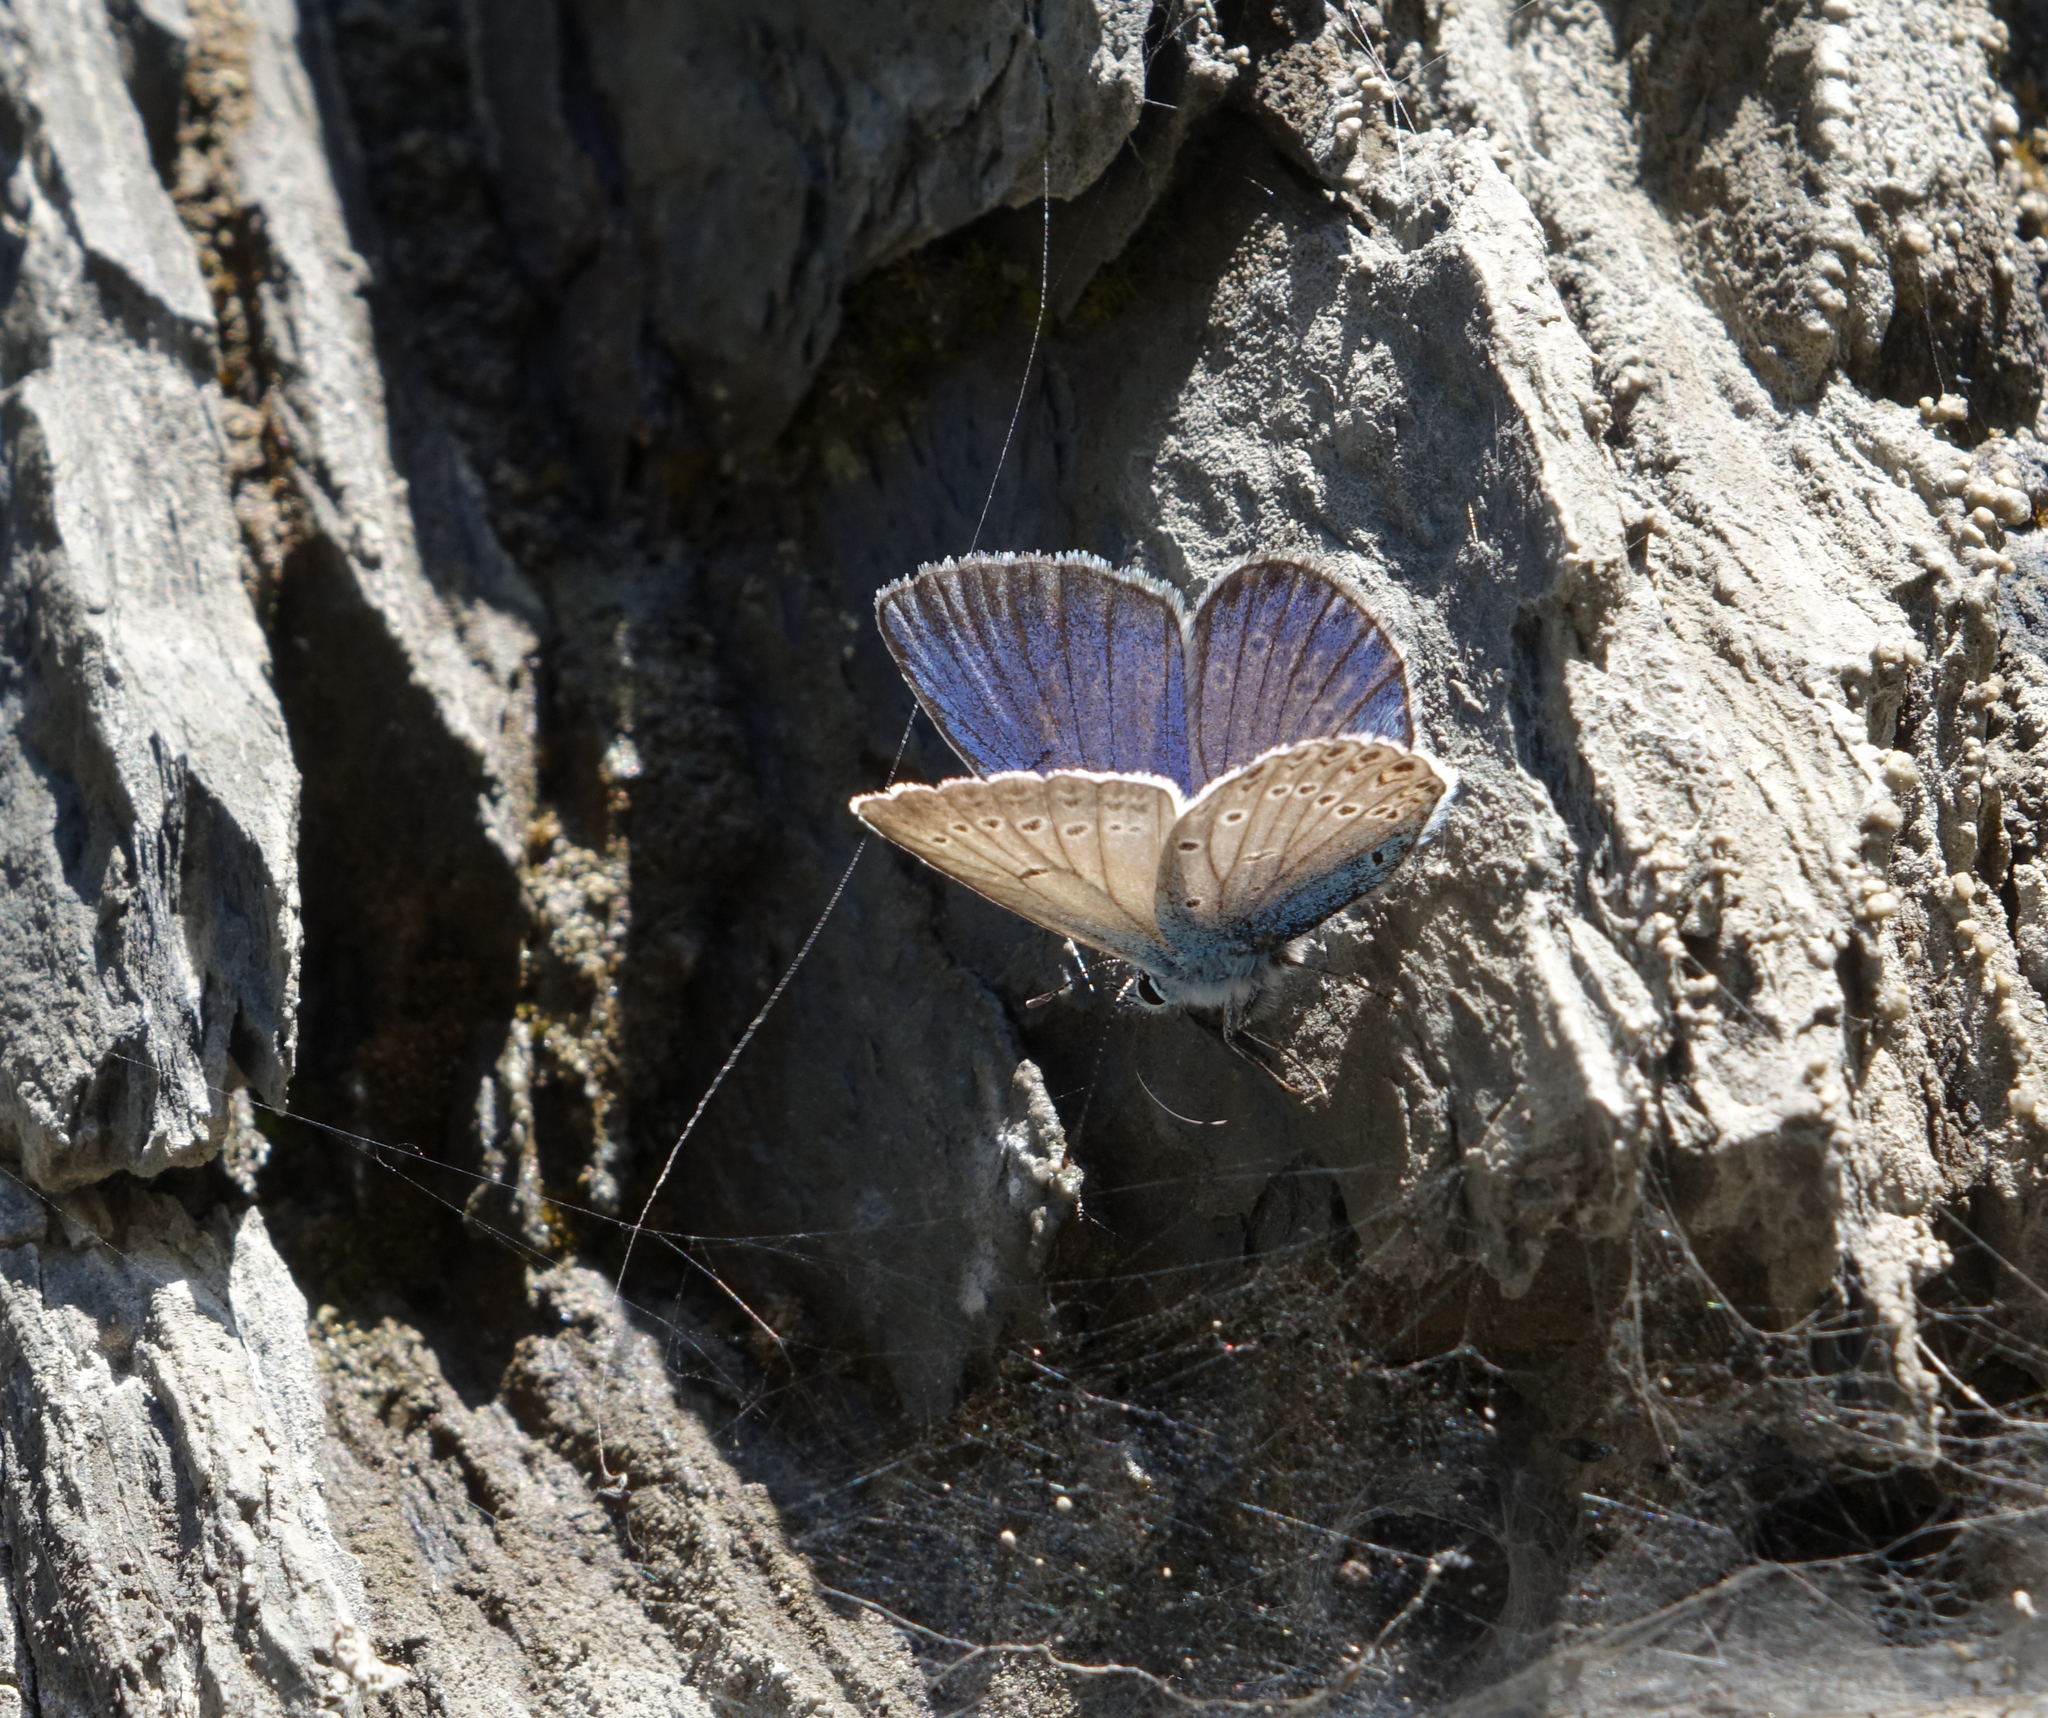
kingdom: Animalia
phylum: Arthropoda
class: Insecta
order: Lepidoptera
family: Lycaenidae
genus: Plebejus
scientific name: Plebejus amanda
